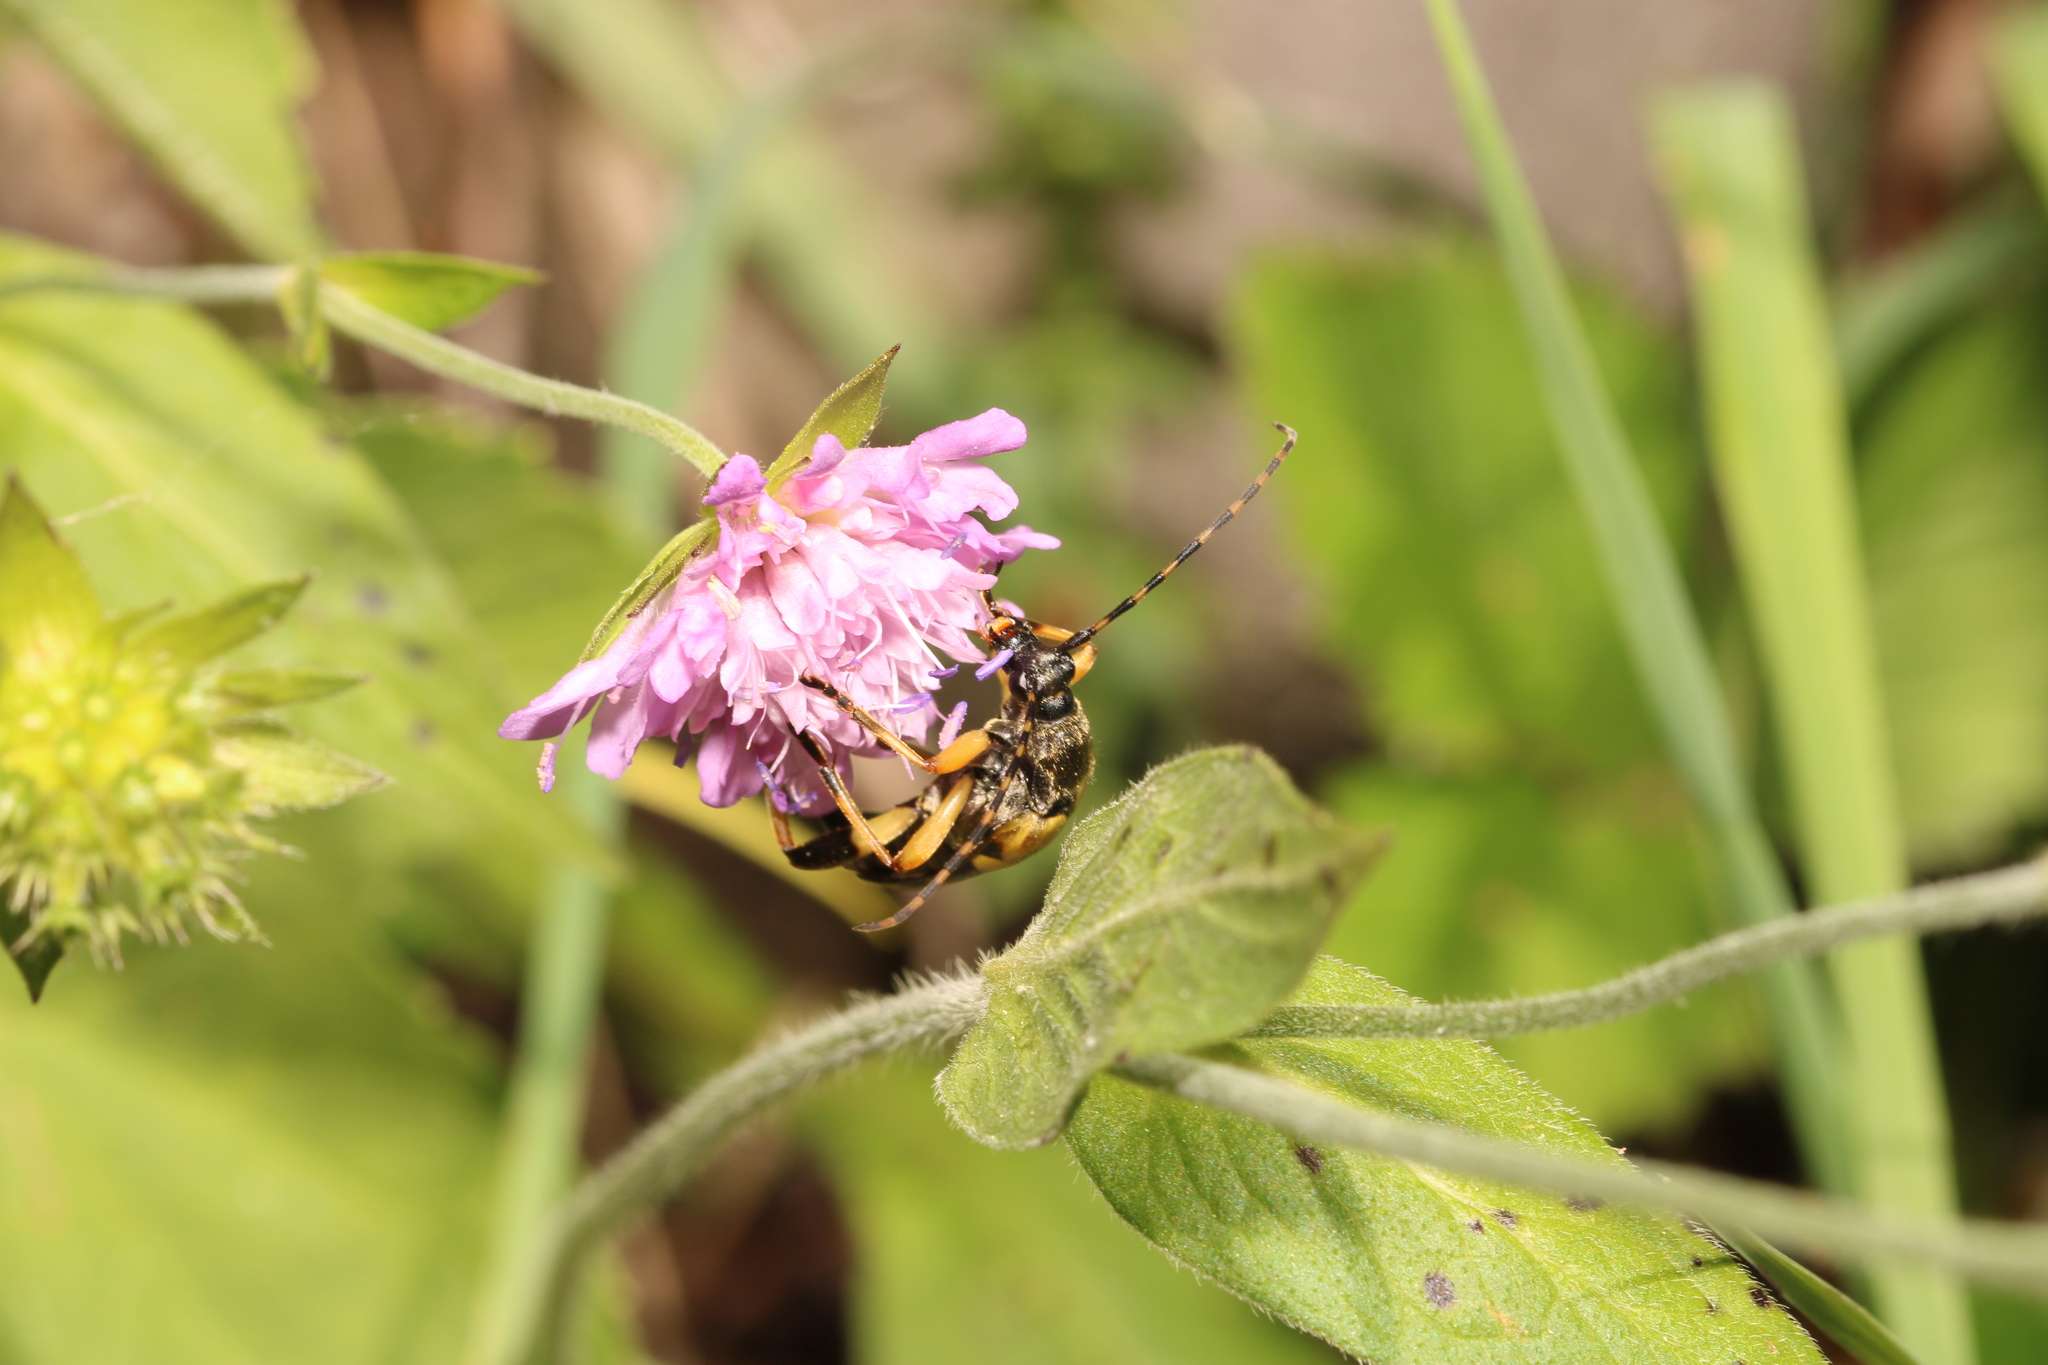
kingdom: Animalia
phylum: Arthropoda
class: Insecta
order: Coleoptera
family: Cerambycidae
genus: Rutpela
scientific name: Rutpela maculata
